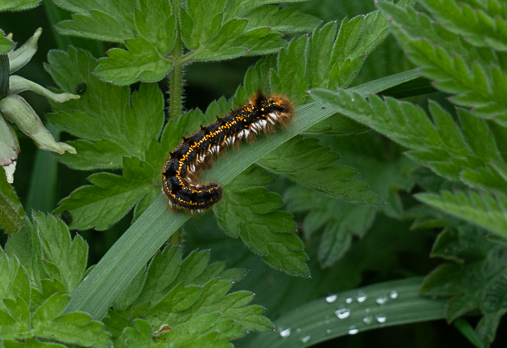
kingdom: Animalia
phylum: Arthropoda
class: Insecta
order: Lepidoptera
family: Lasiocampidae
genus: Euthrix
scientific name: Euthrix potatoria
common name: Drinker
